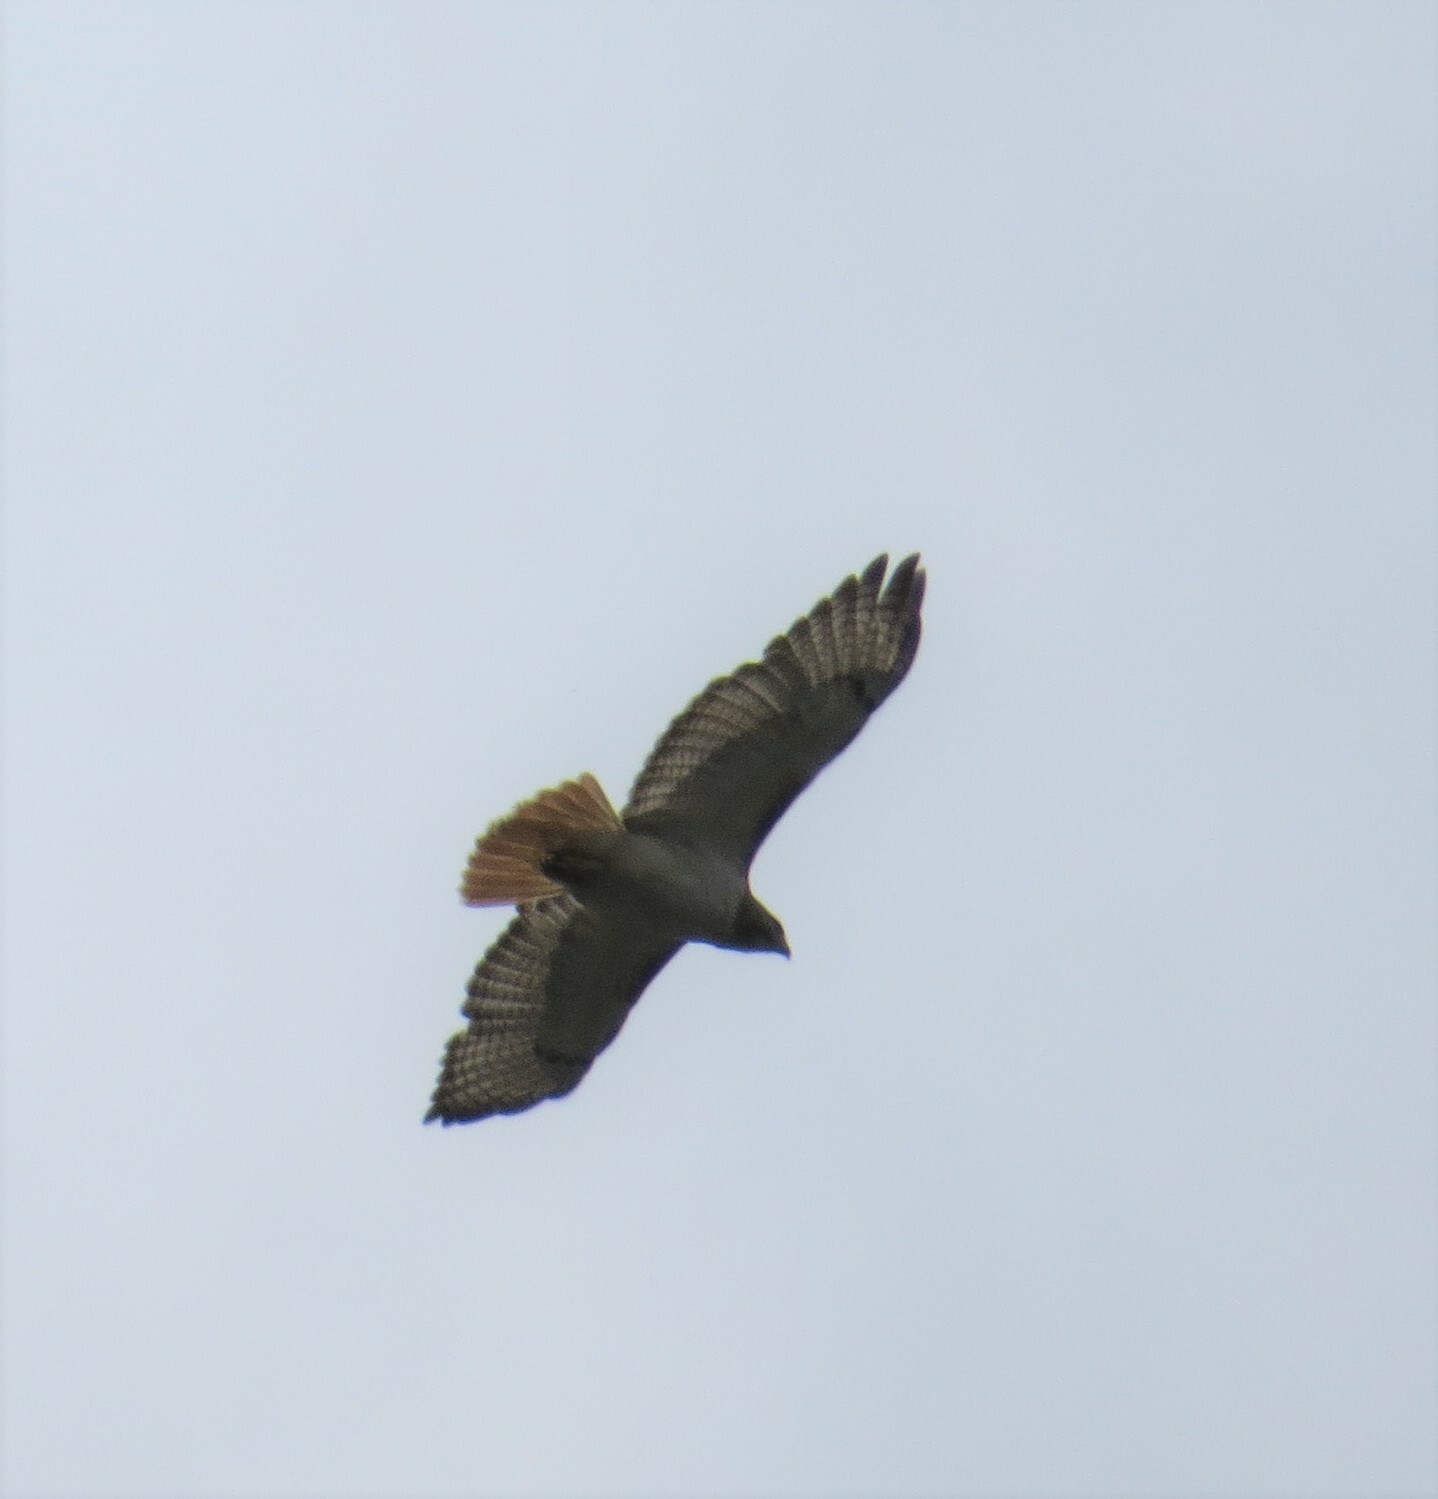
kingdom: Animalia
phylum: Chordata
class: Aves
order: Accipitriformes
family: Accipitridae
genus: Buteo
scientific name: Buteo jamaicensis
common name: Red-tailed hawk
